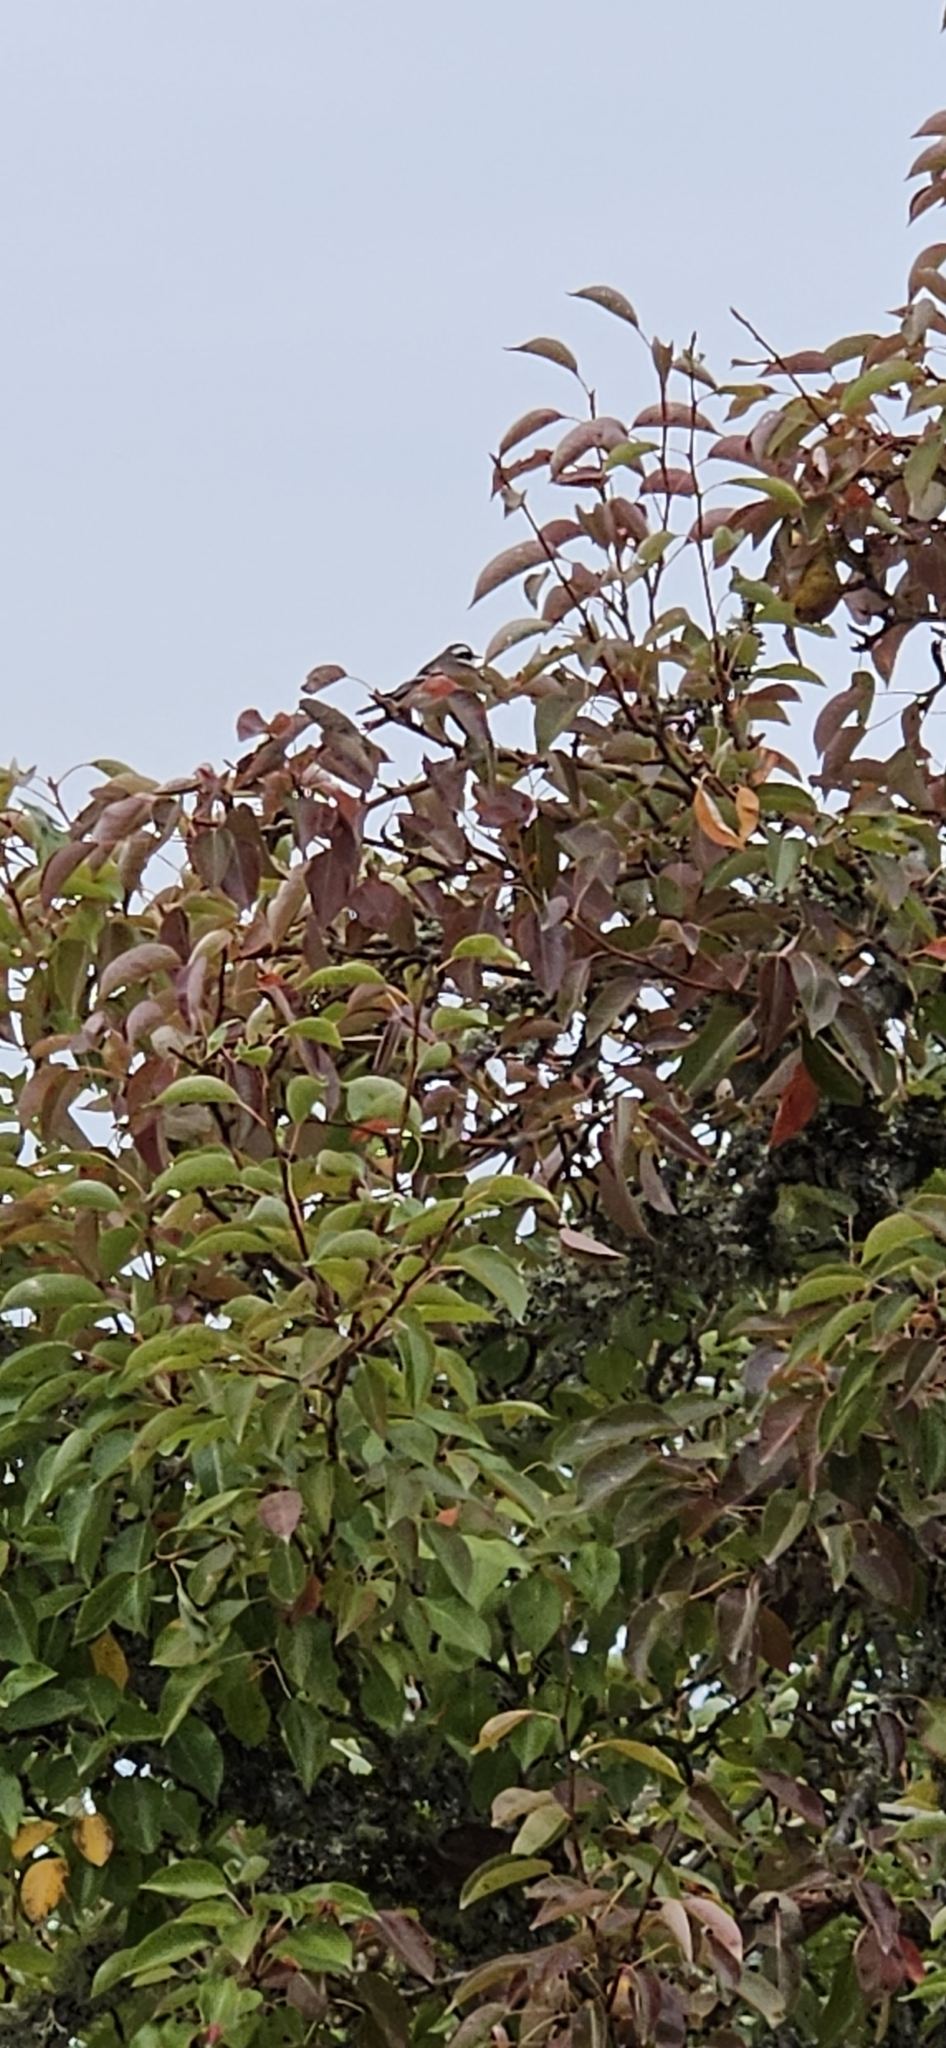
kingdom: Animalia
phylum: Chordata
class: Aves
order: Passeriformes
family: Parulidae
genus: Setophaga
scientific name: Setophaga nigrescens
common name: Black-throated gray warbler
